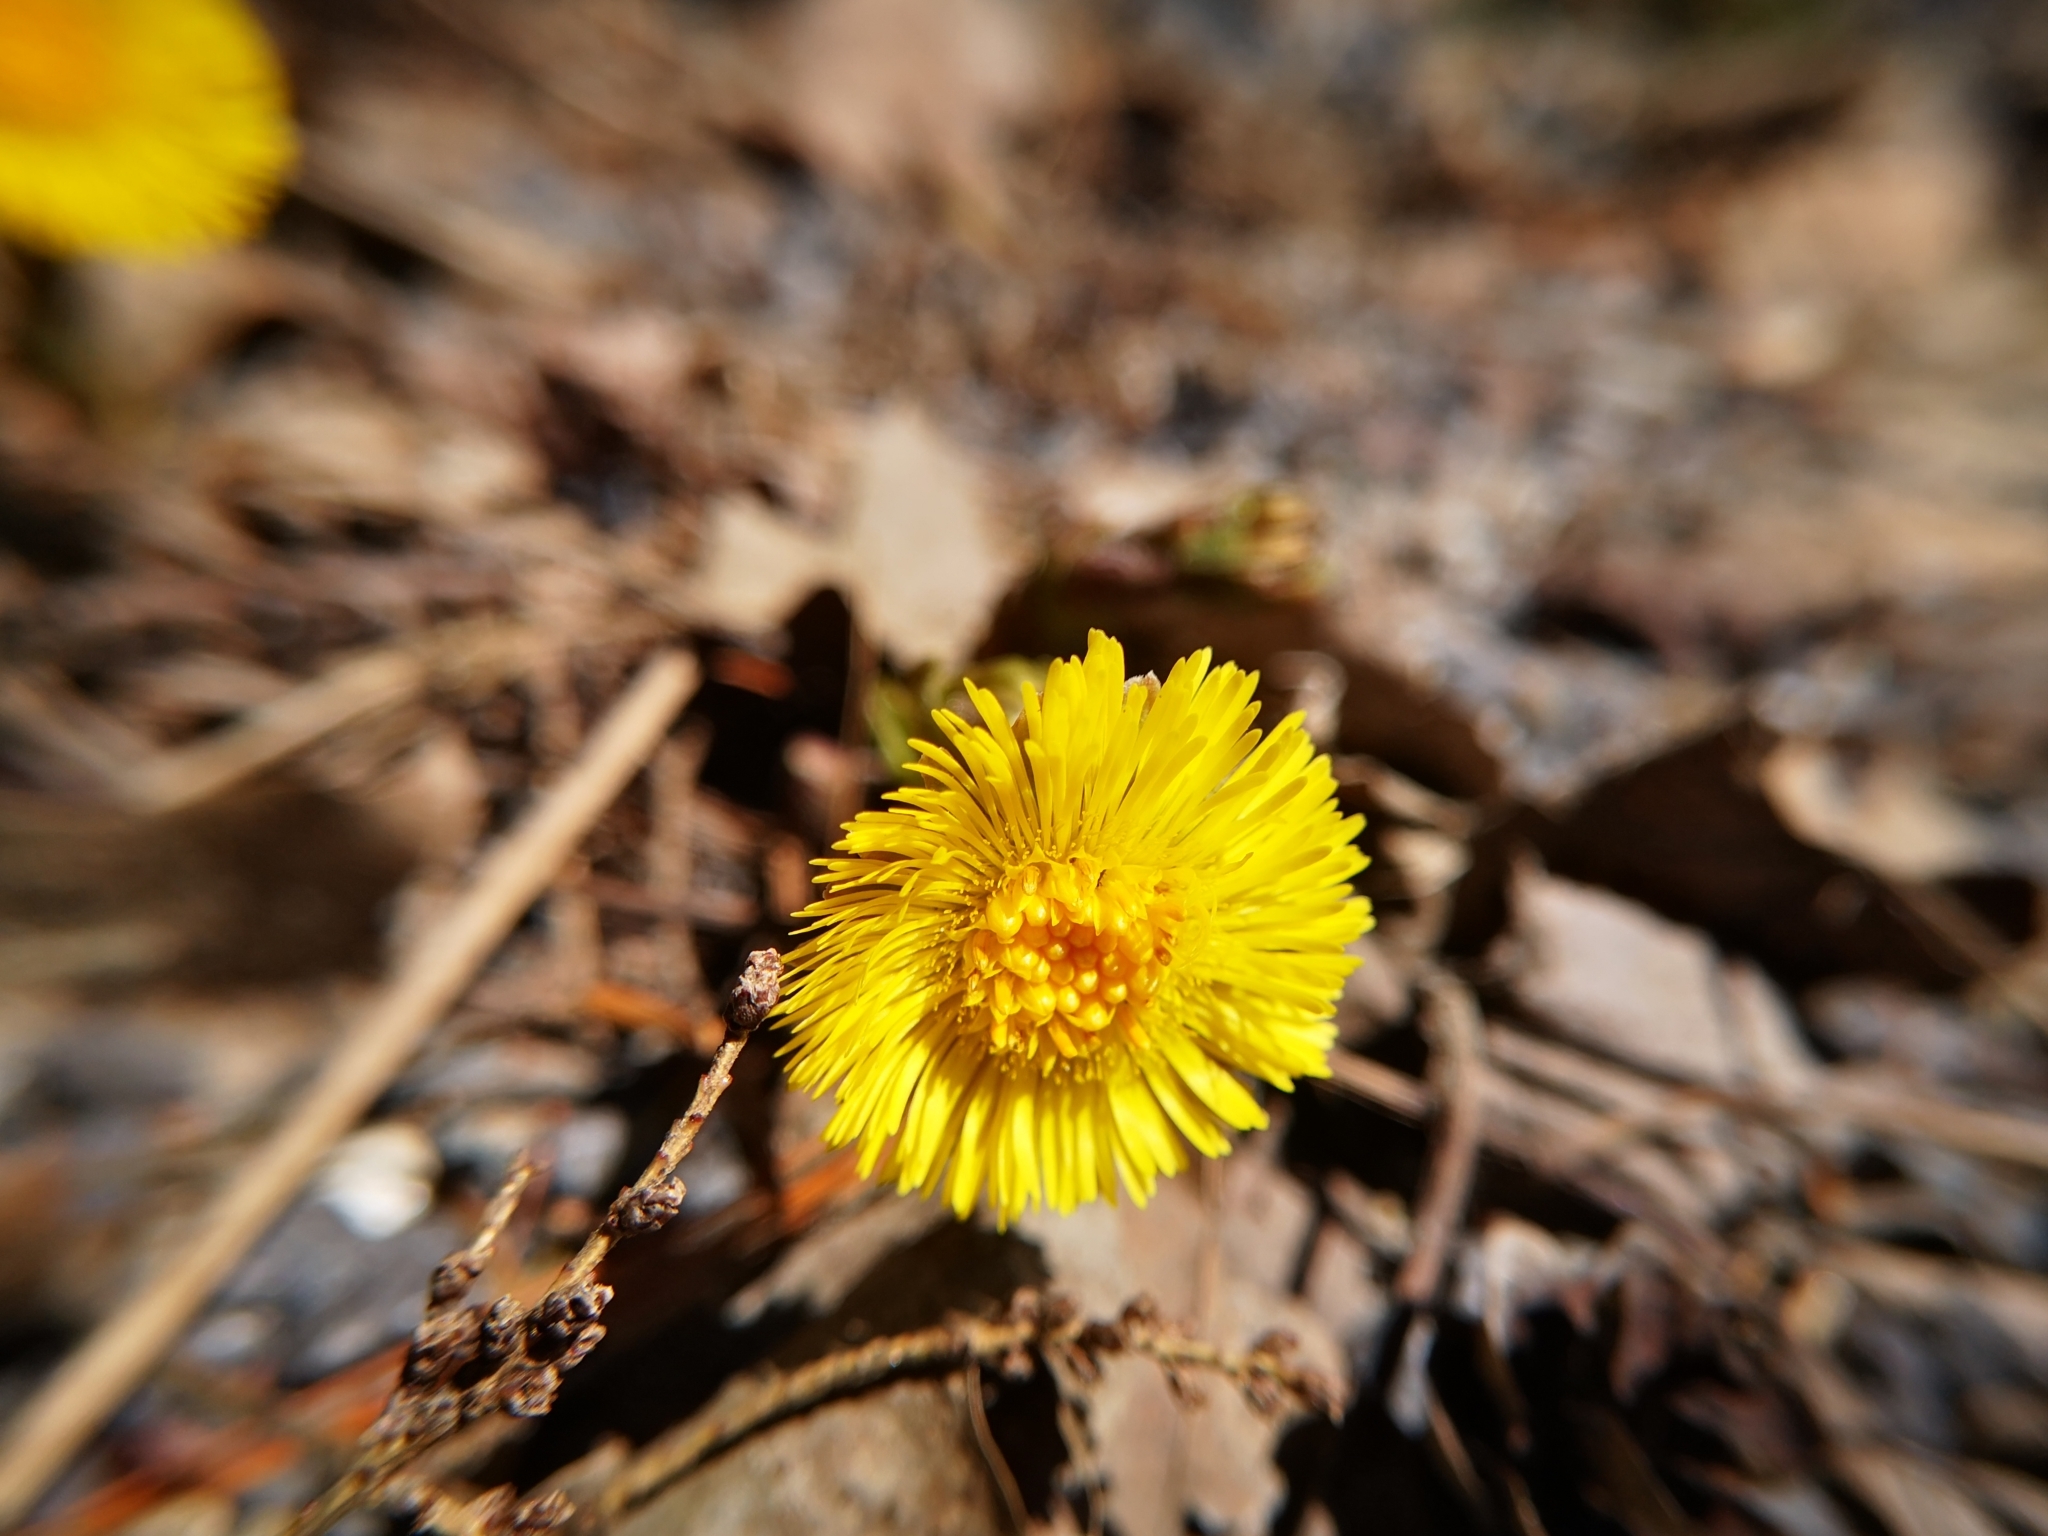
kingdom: Plantae
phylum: Tracheophyta
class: Magnoliopsida
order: Asterales
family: Asteraceae
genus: Tussilago
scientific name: Tussilago farfara
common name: Coltsfoot
